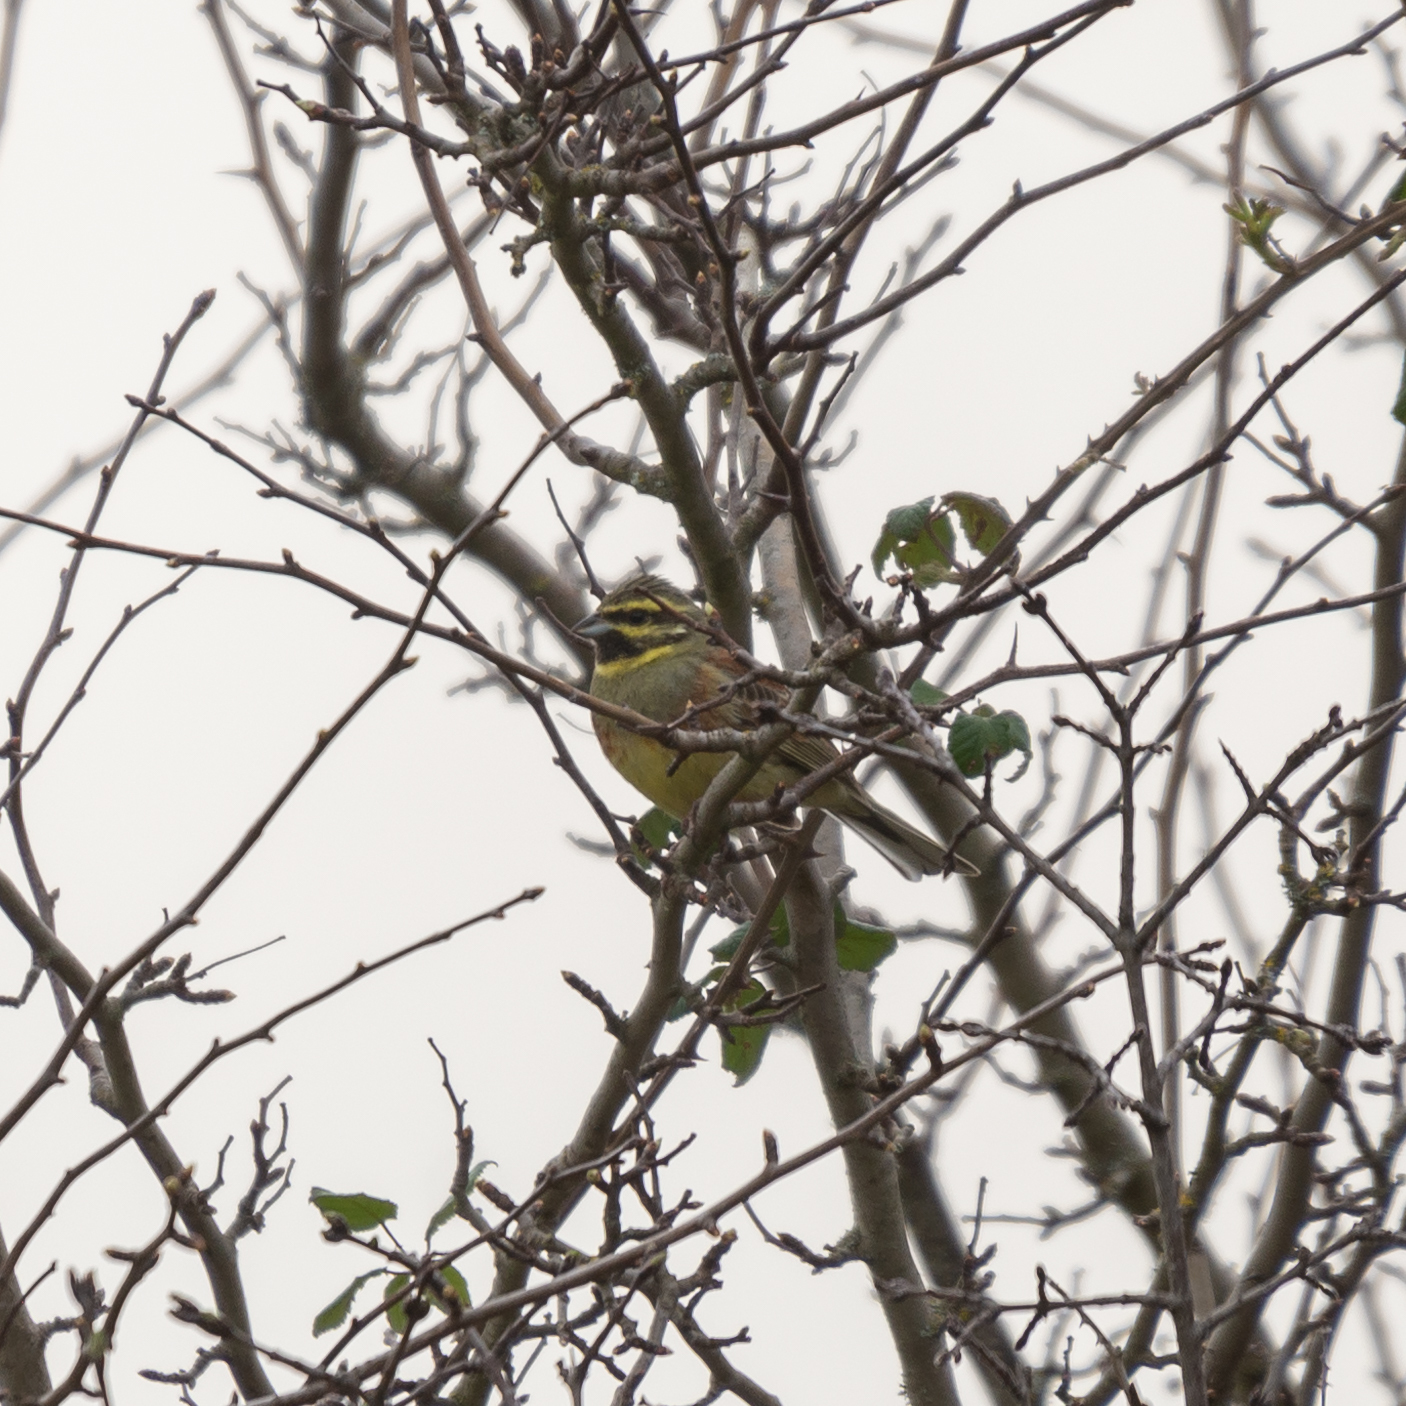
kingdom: Animalia
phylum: Chordata
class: Aves
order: Passeriformes
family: Emberizidae
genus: Emberiza
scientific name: Emberiza cirlus
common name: Cirl bunting
